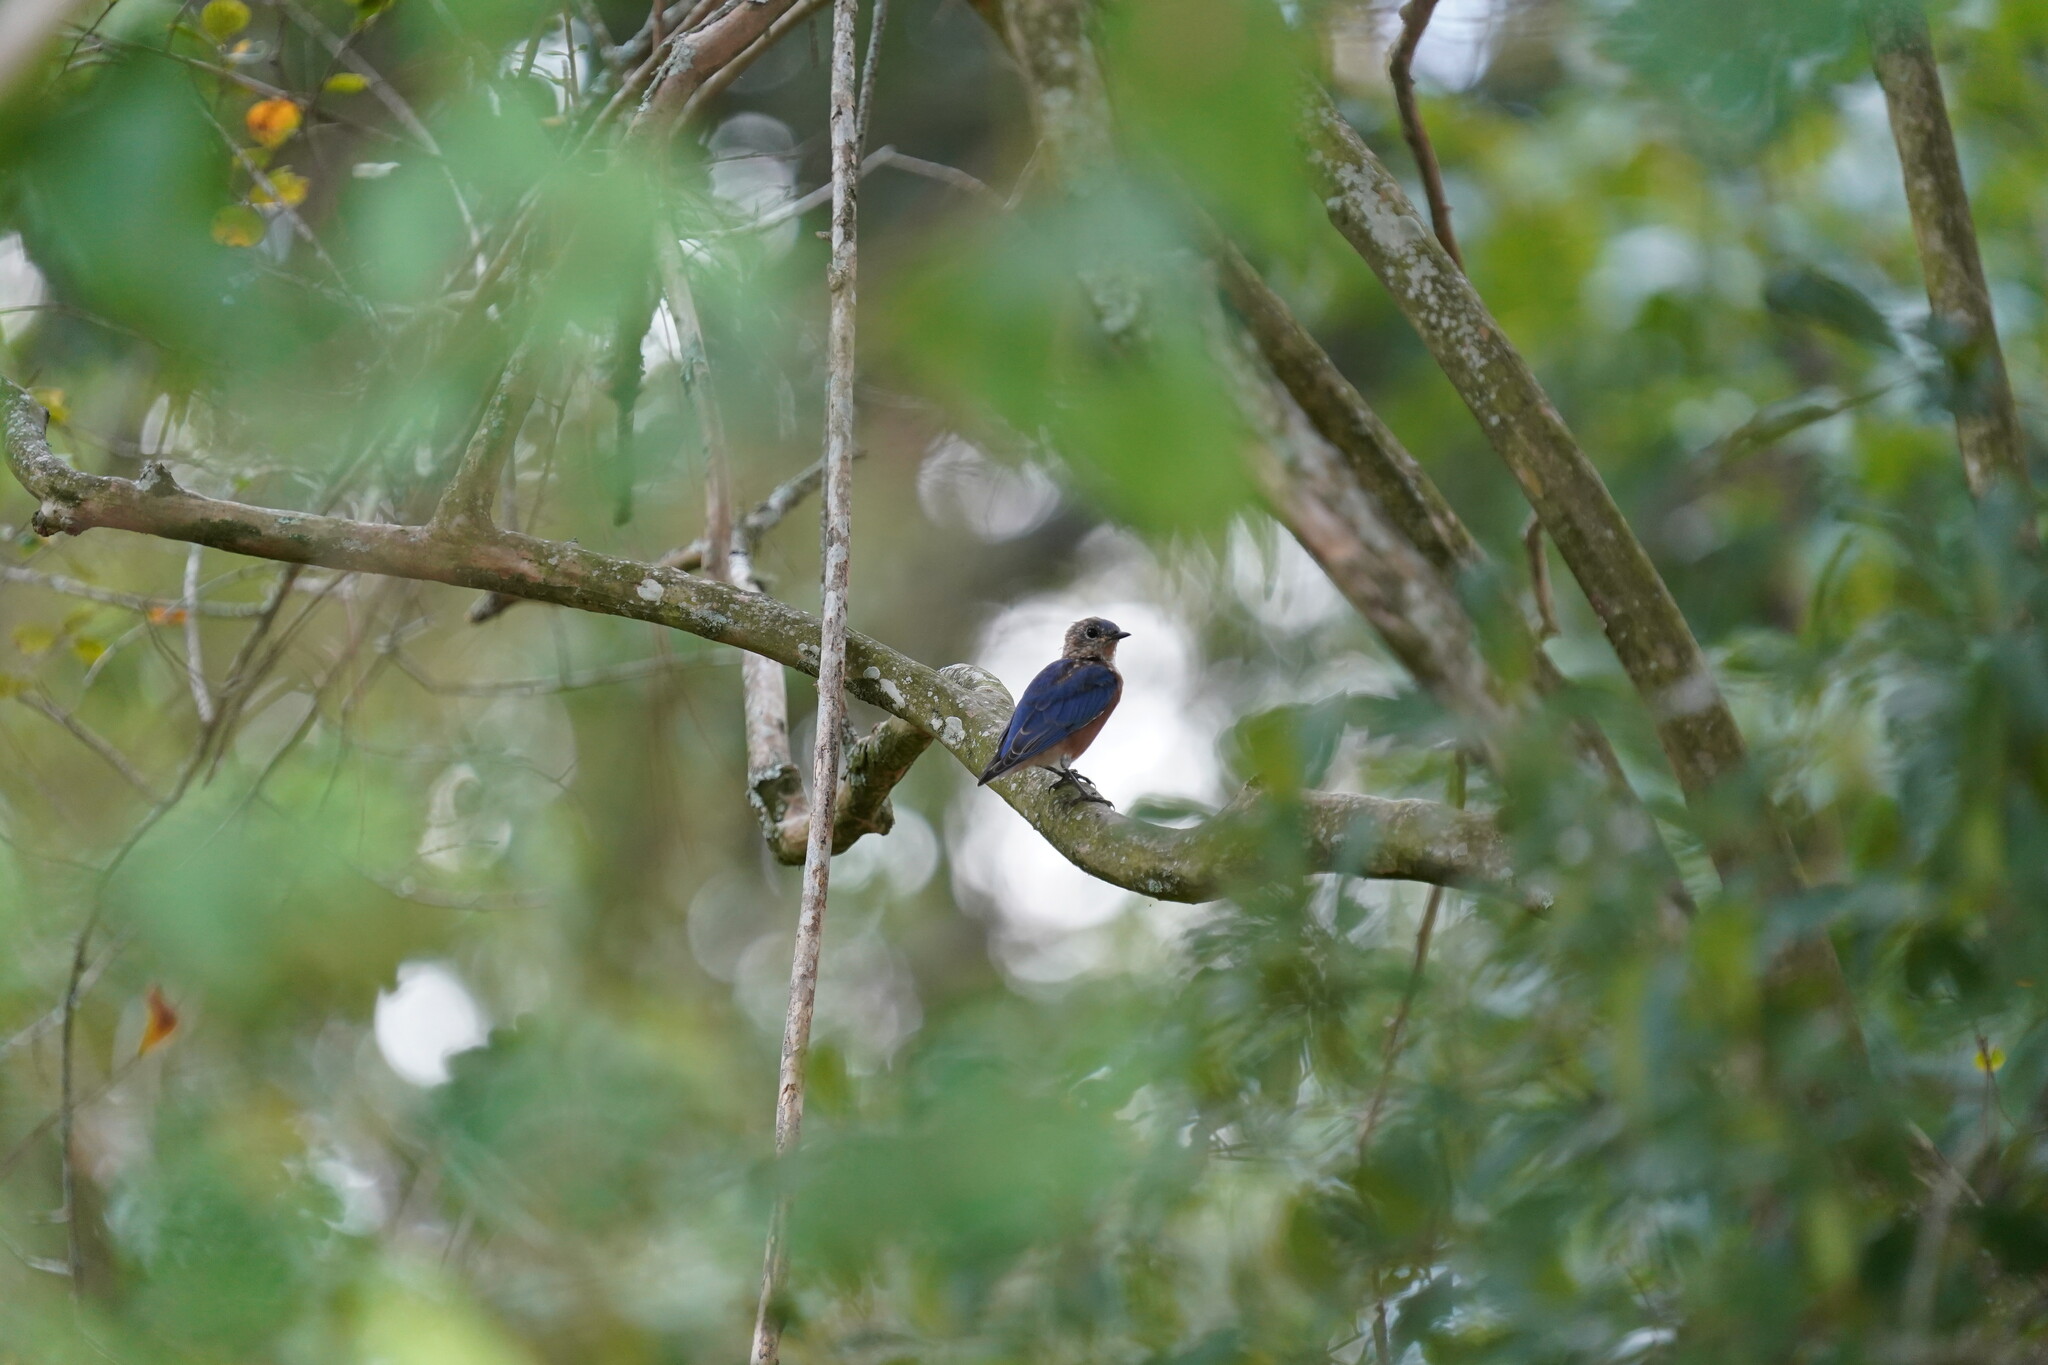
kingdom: Animalia
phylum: Chordata
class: Aves
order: Passeriformes
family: Turdidae
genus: Sialia
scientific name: Sialia sialis
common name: Eastern bluebird
